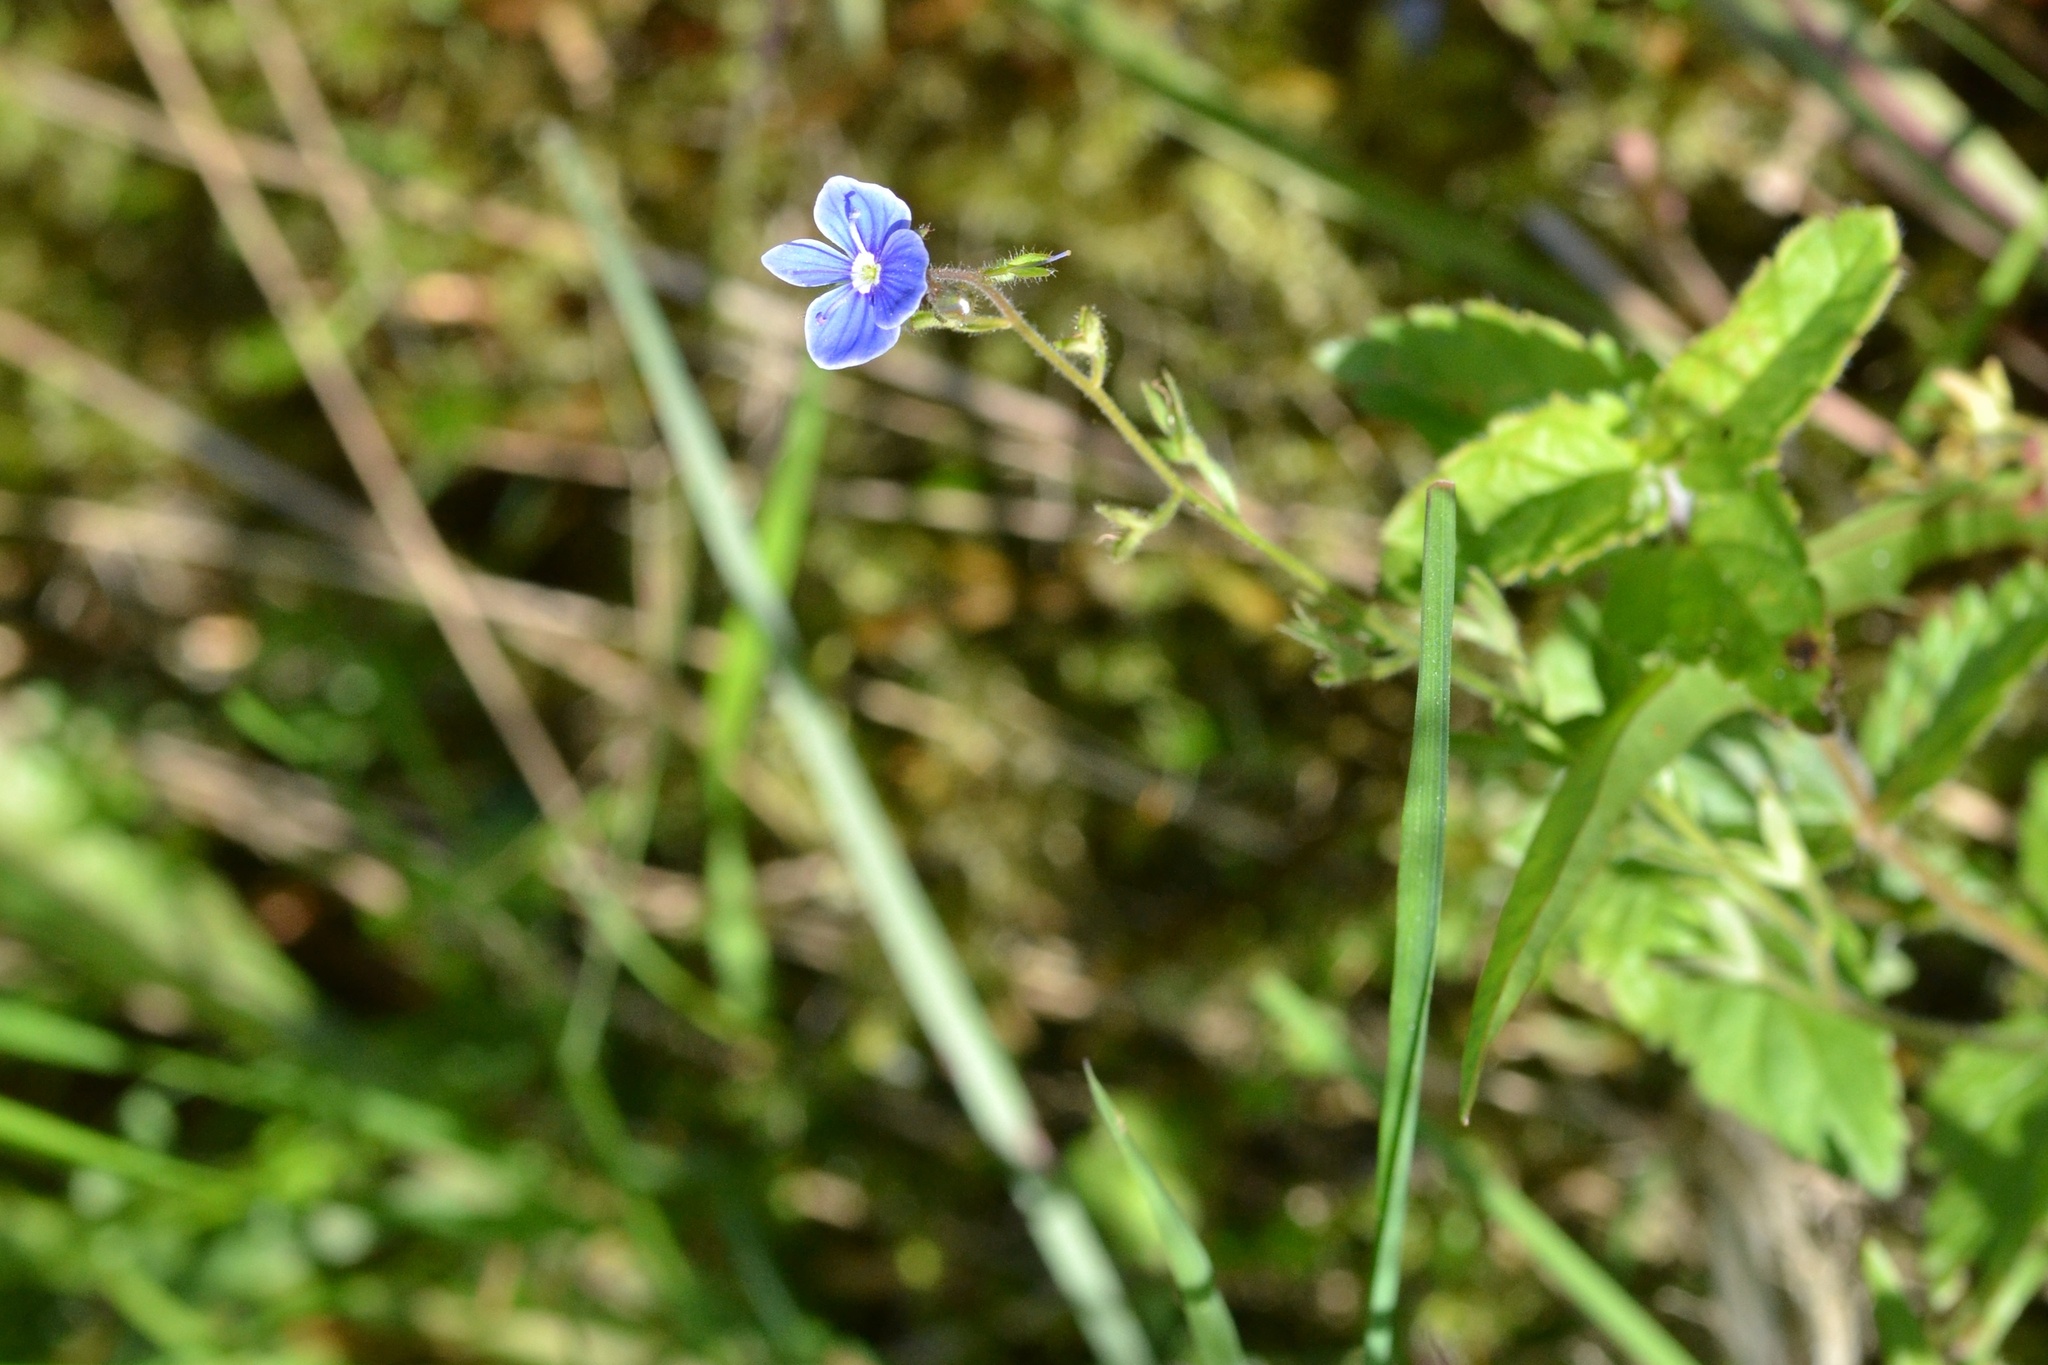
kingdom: Plantae
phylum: Tracheophyta
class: Magnoliopsida
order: Lamiales
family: Plantaginaceae
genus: Veronica
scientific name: Veronica chamaedrys
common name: Germander speedwell
